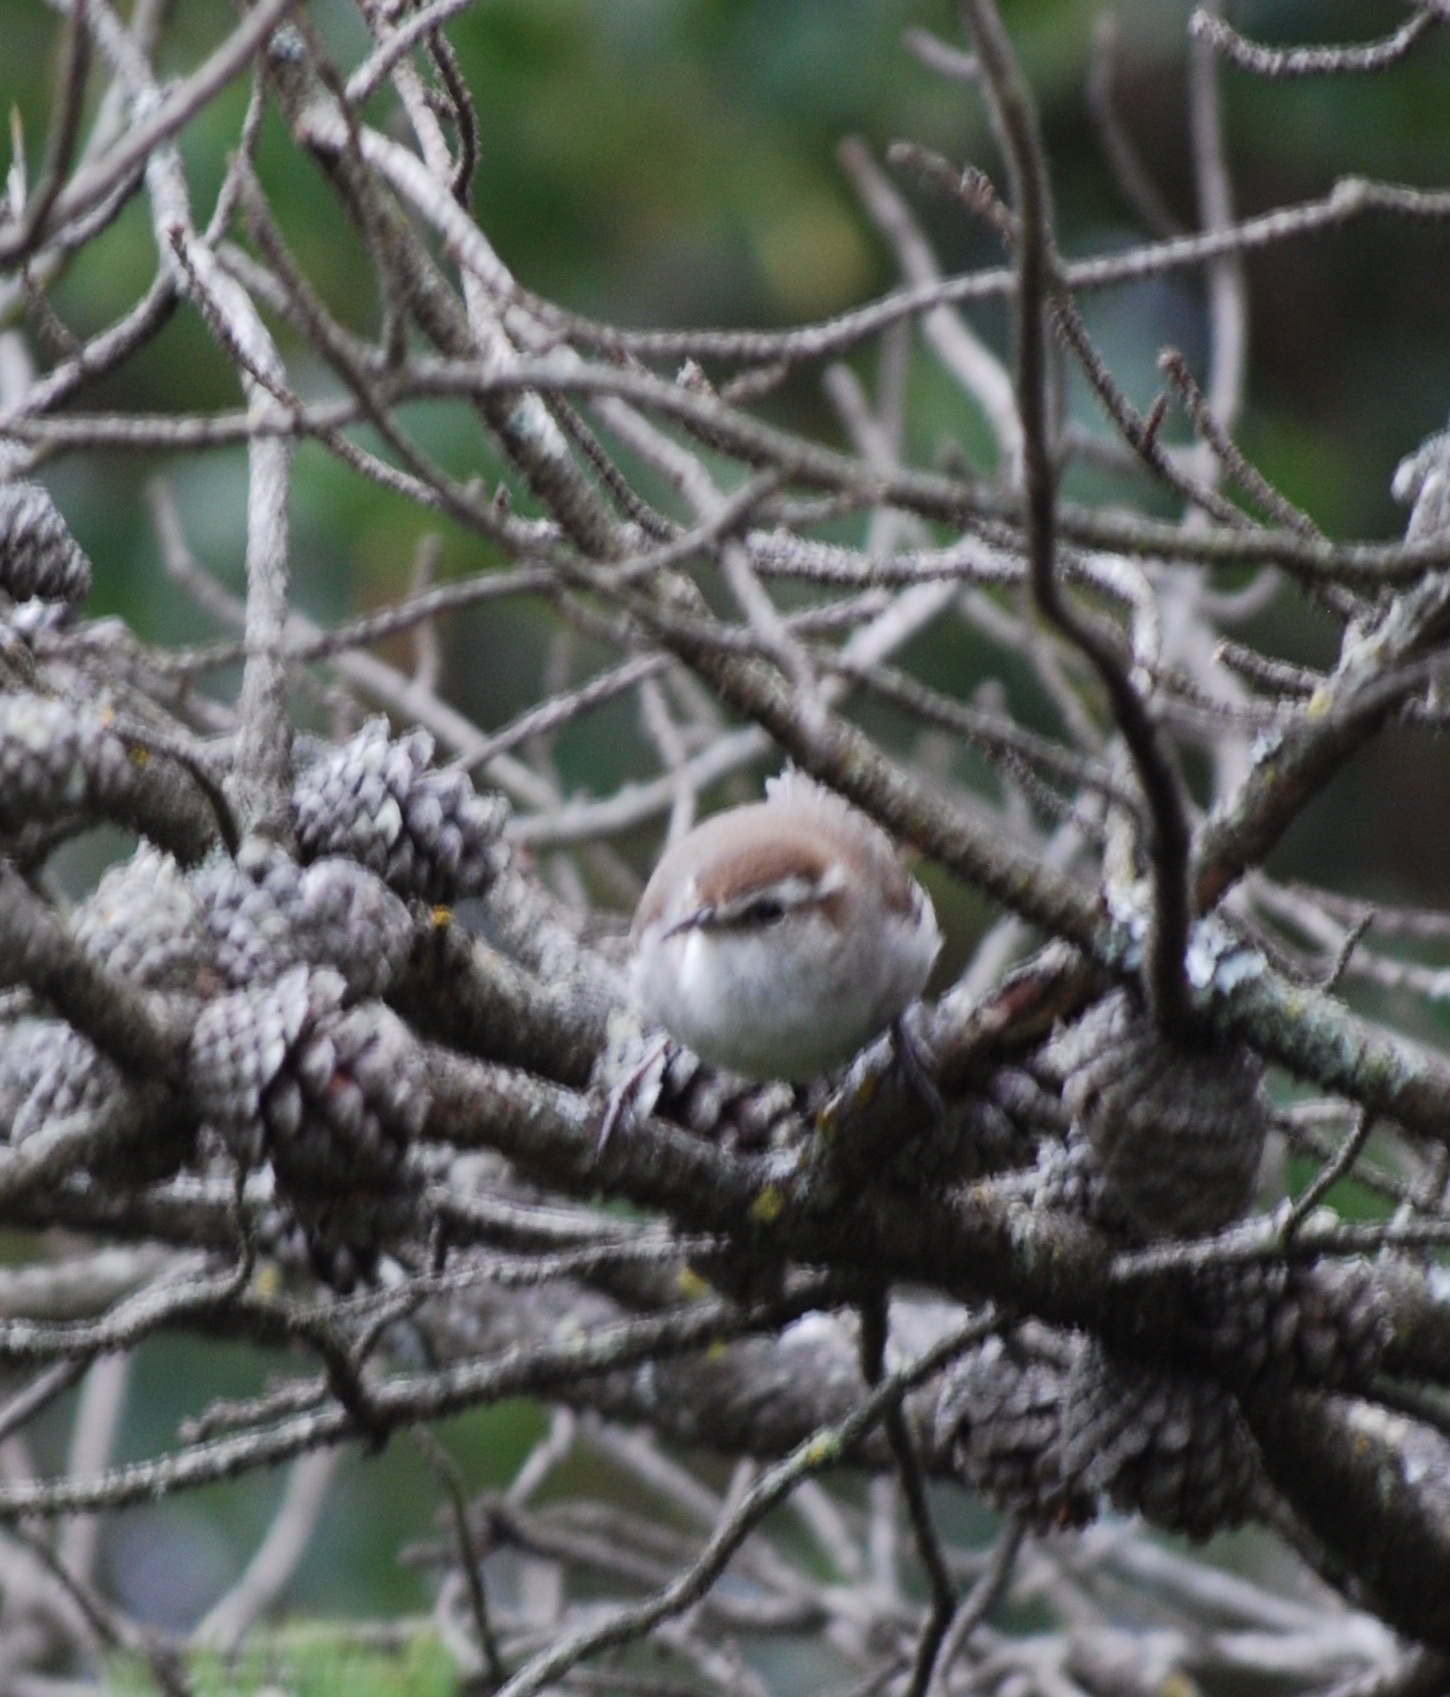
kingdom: Animalia
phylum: Chordata
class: Aves
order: Passeriformes
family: Troglodytidae
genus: Thryomanes
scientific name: Thryomanes bewickii
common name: Bewick's wren
